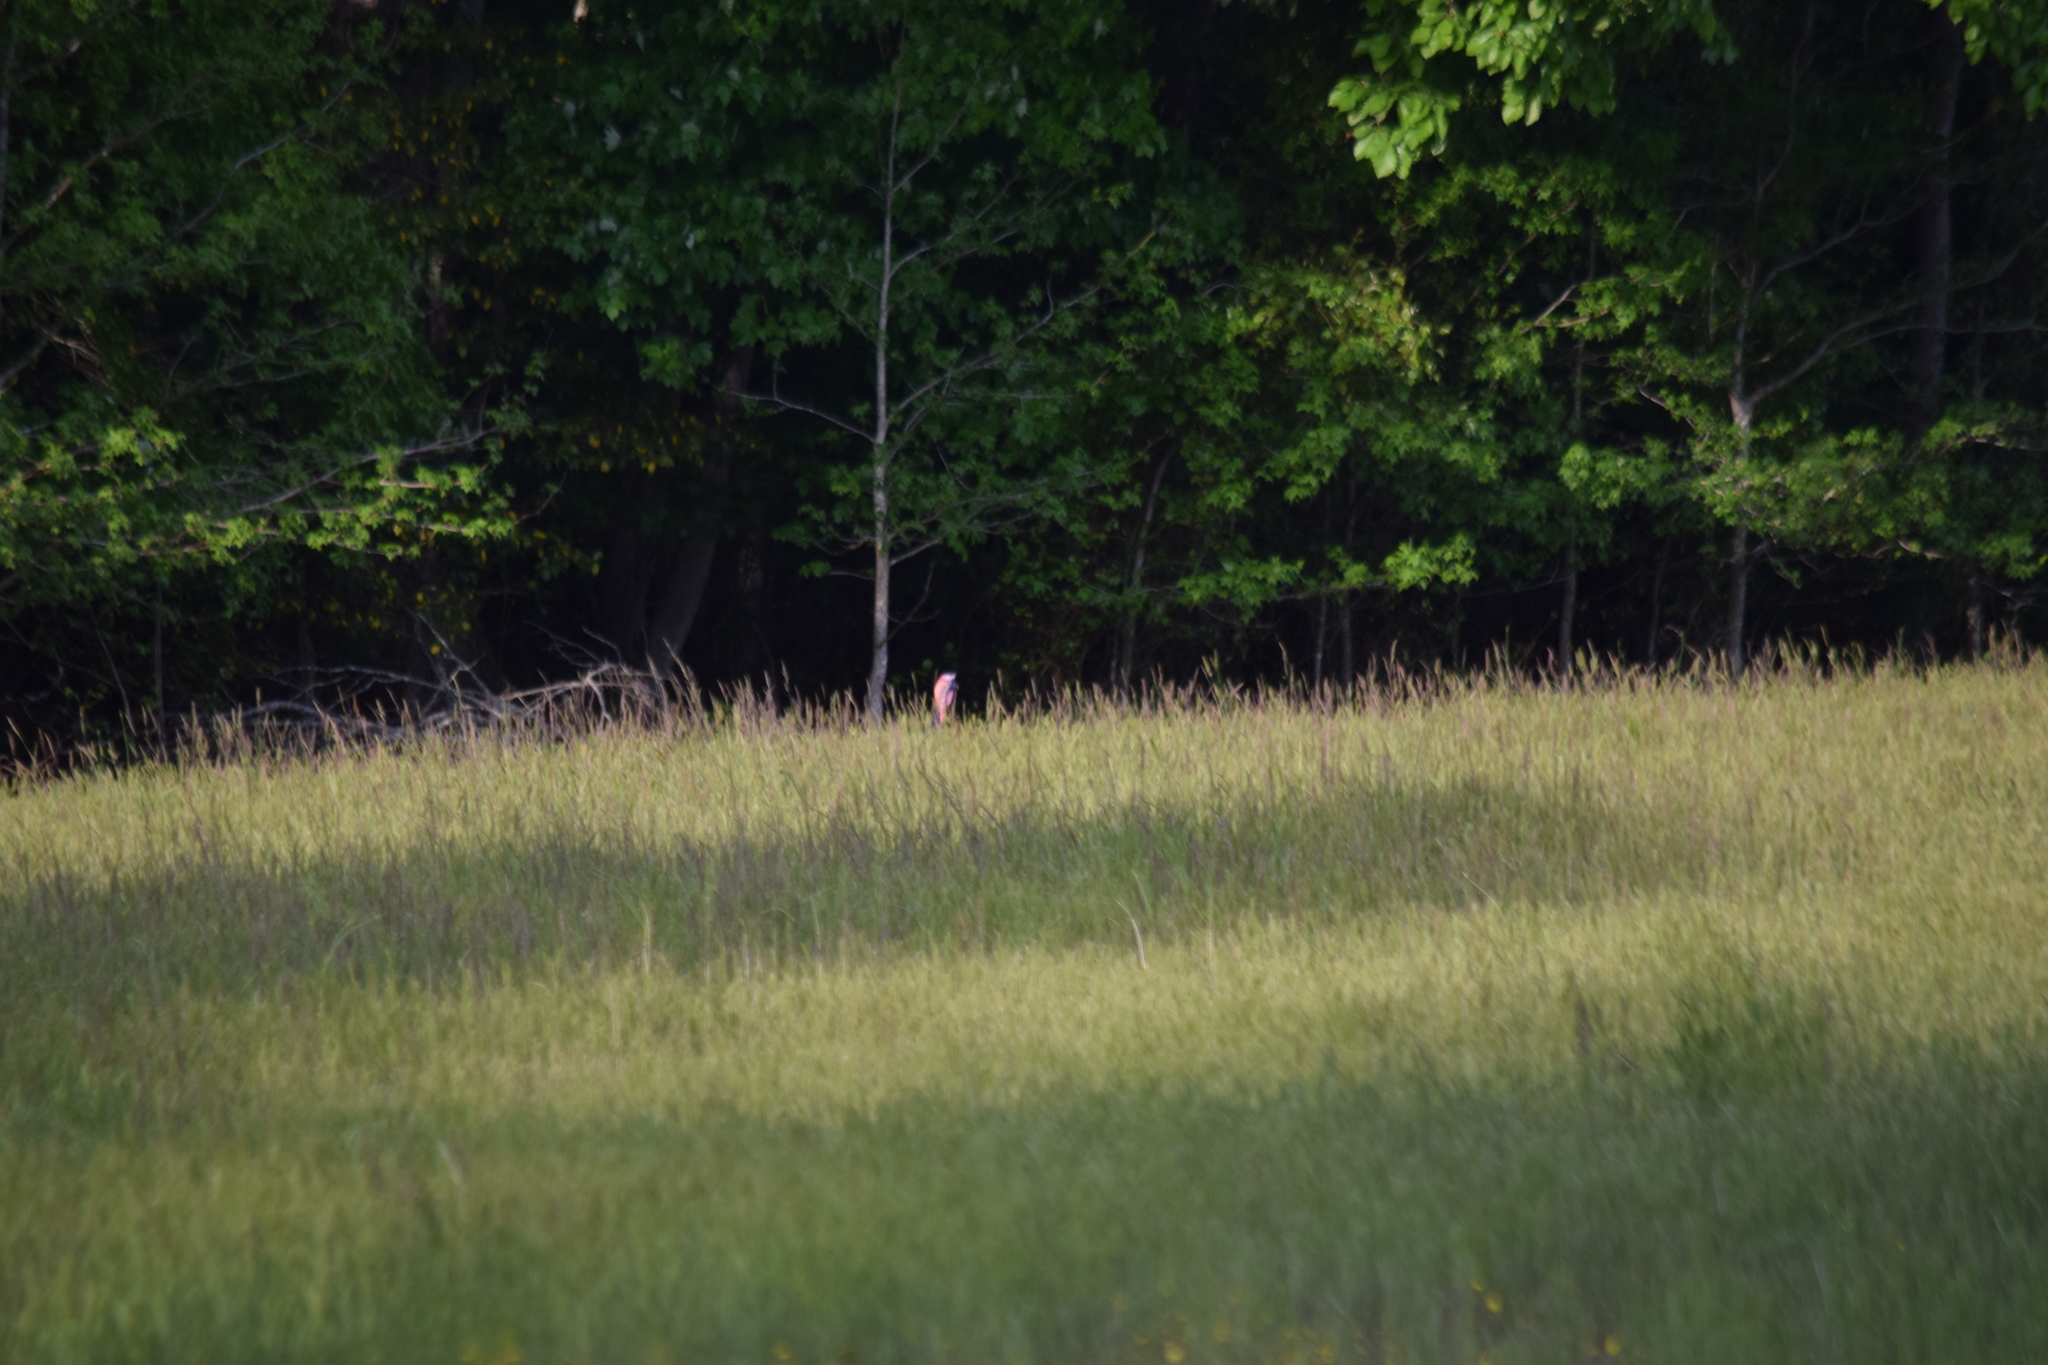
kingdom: Animalia
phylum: Chordata
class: Aves
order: Galliformes
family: Phasianidae
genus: Meleagris
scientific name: Meleagris gallopavo
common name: Wild turkey
